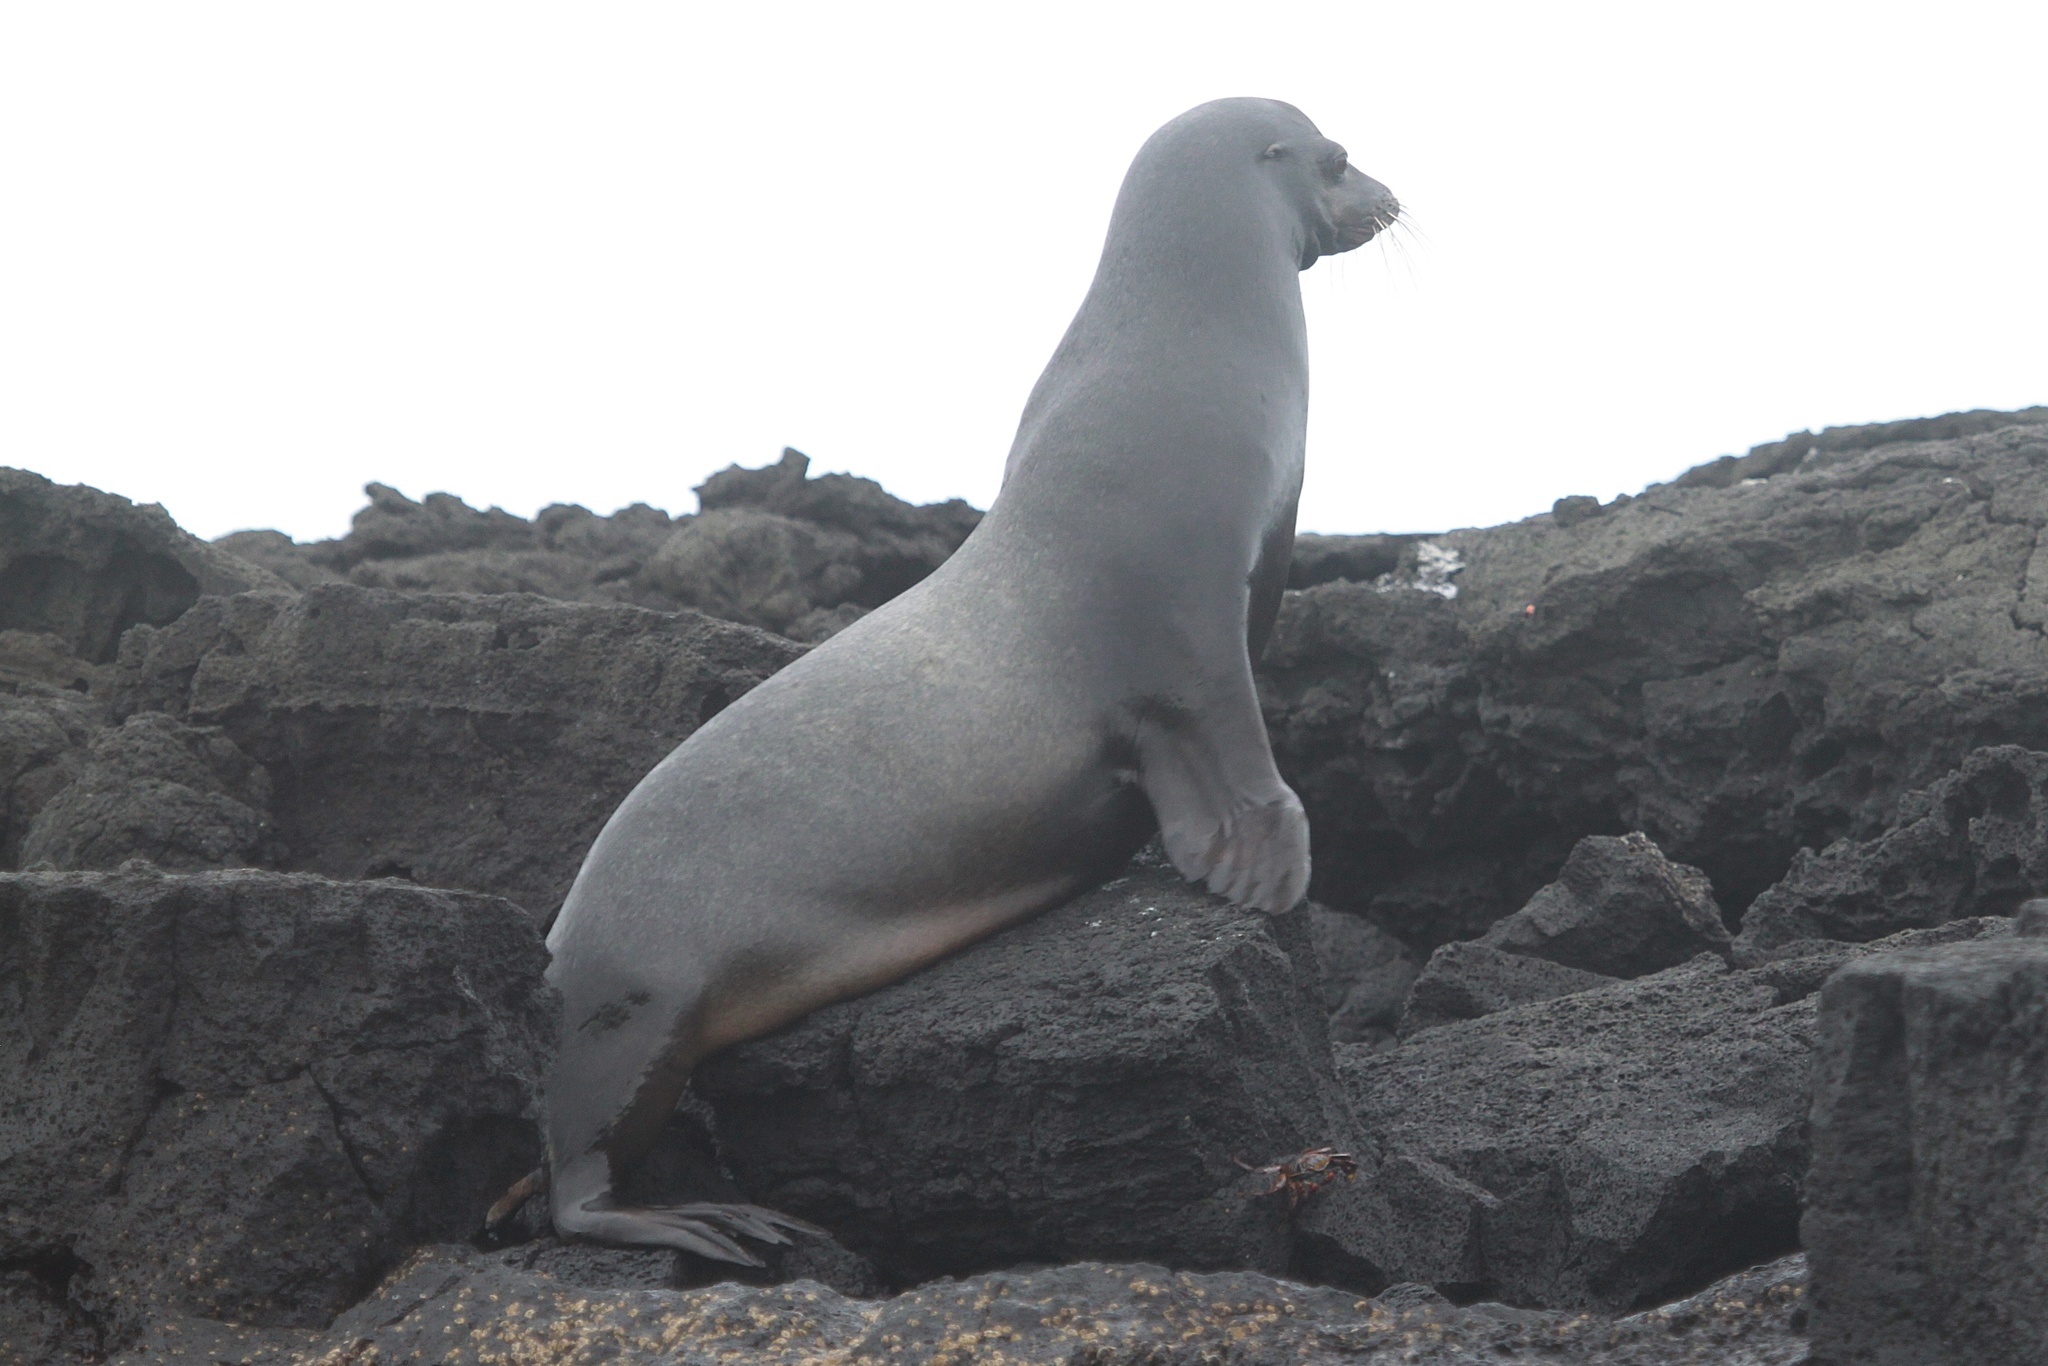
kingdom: Animalia
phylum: Chordata
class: Mammalia
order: Carnivora
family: Otariidae
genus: Zalophus
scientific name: Zalophus wollebaeki
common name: Galapagos sea lion
